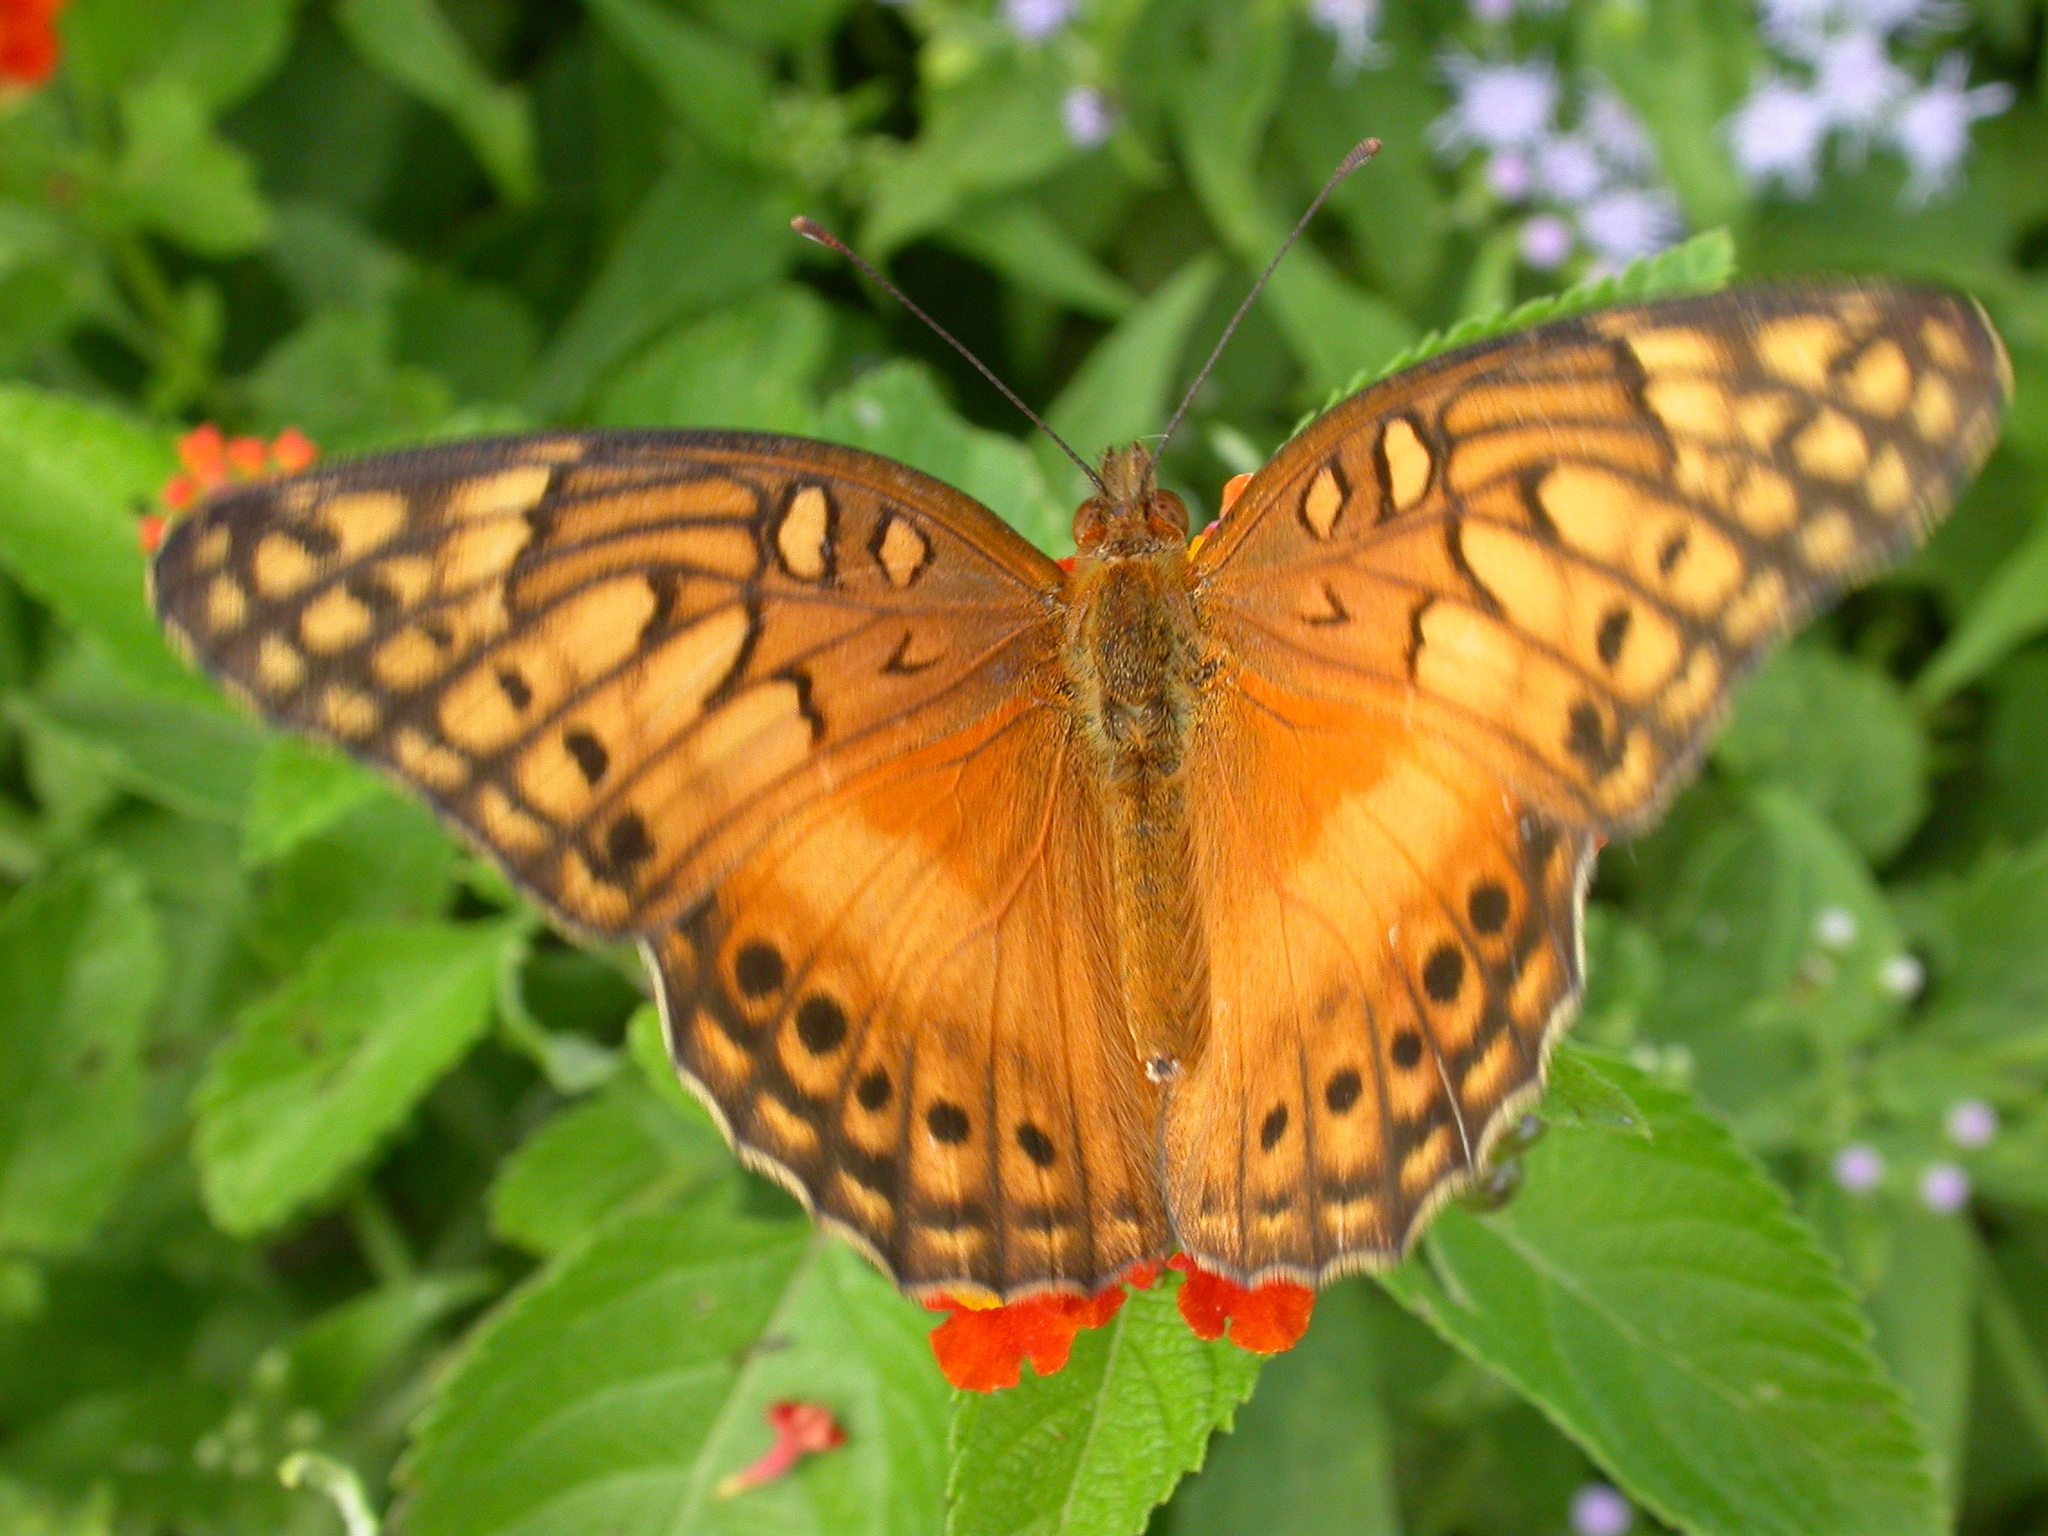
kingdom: Animalia
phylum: Arthropoda
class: Insecta
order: Lepidoptera
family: Nymphalidae
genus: Euptoieta
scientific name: Euptoieta hegesia
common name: Mexican fritillary
